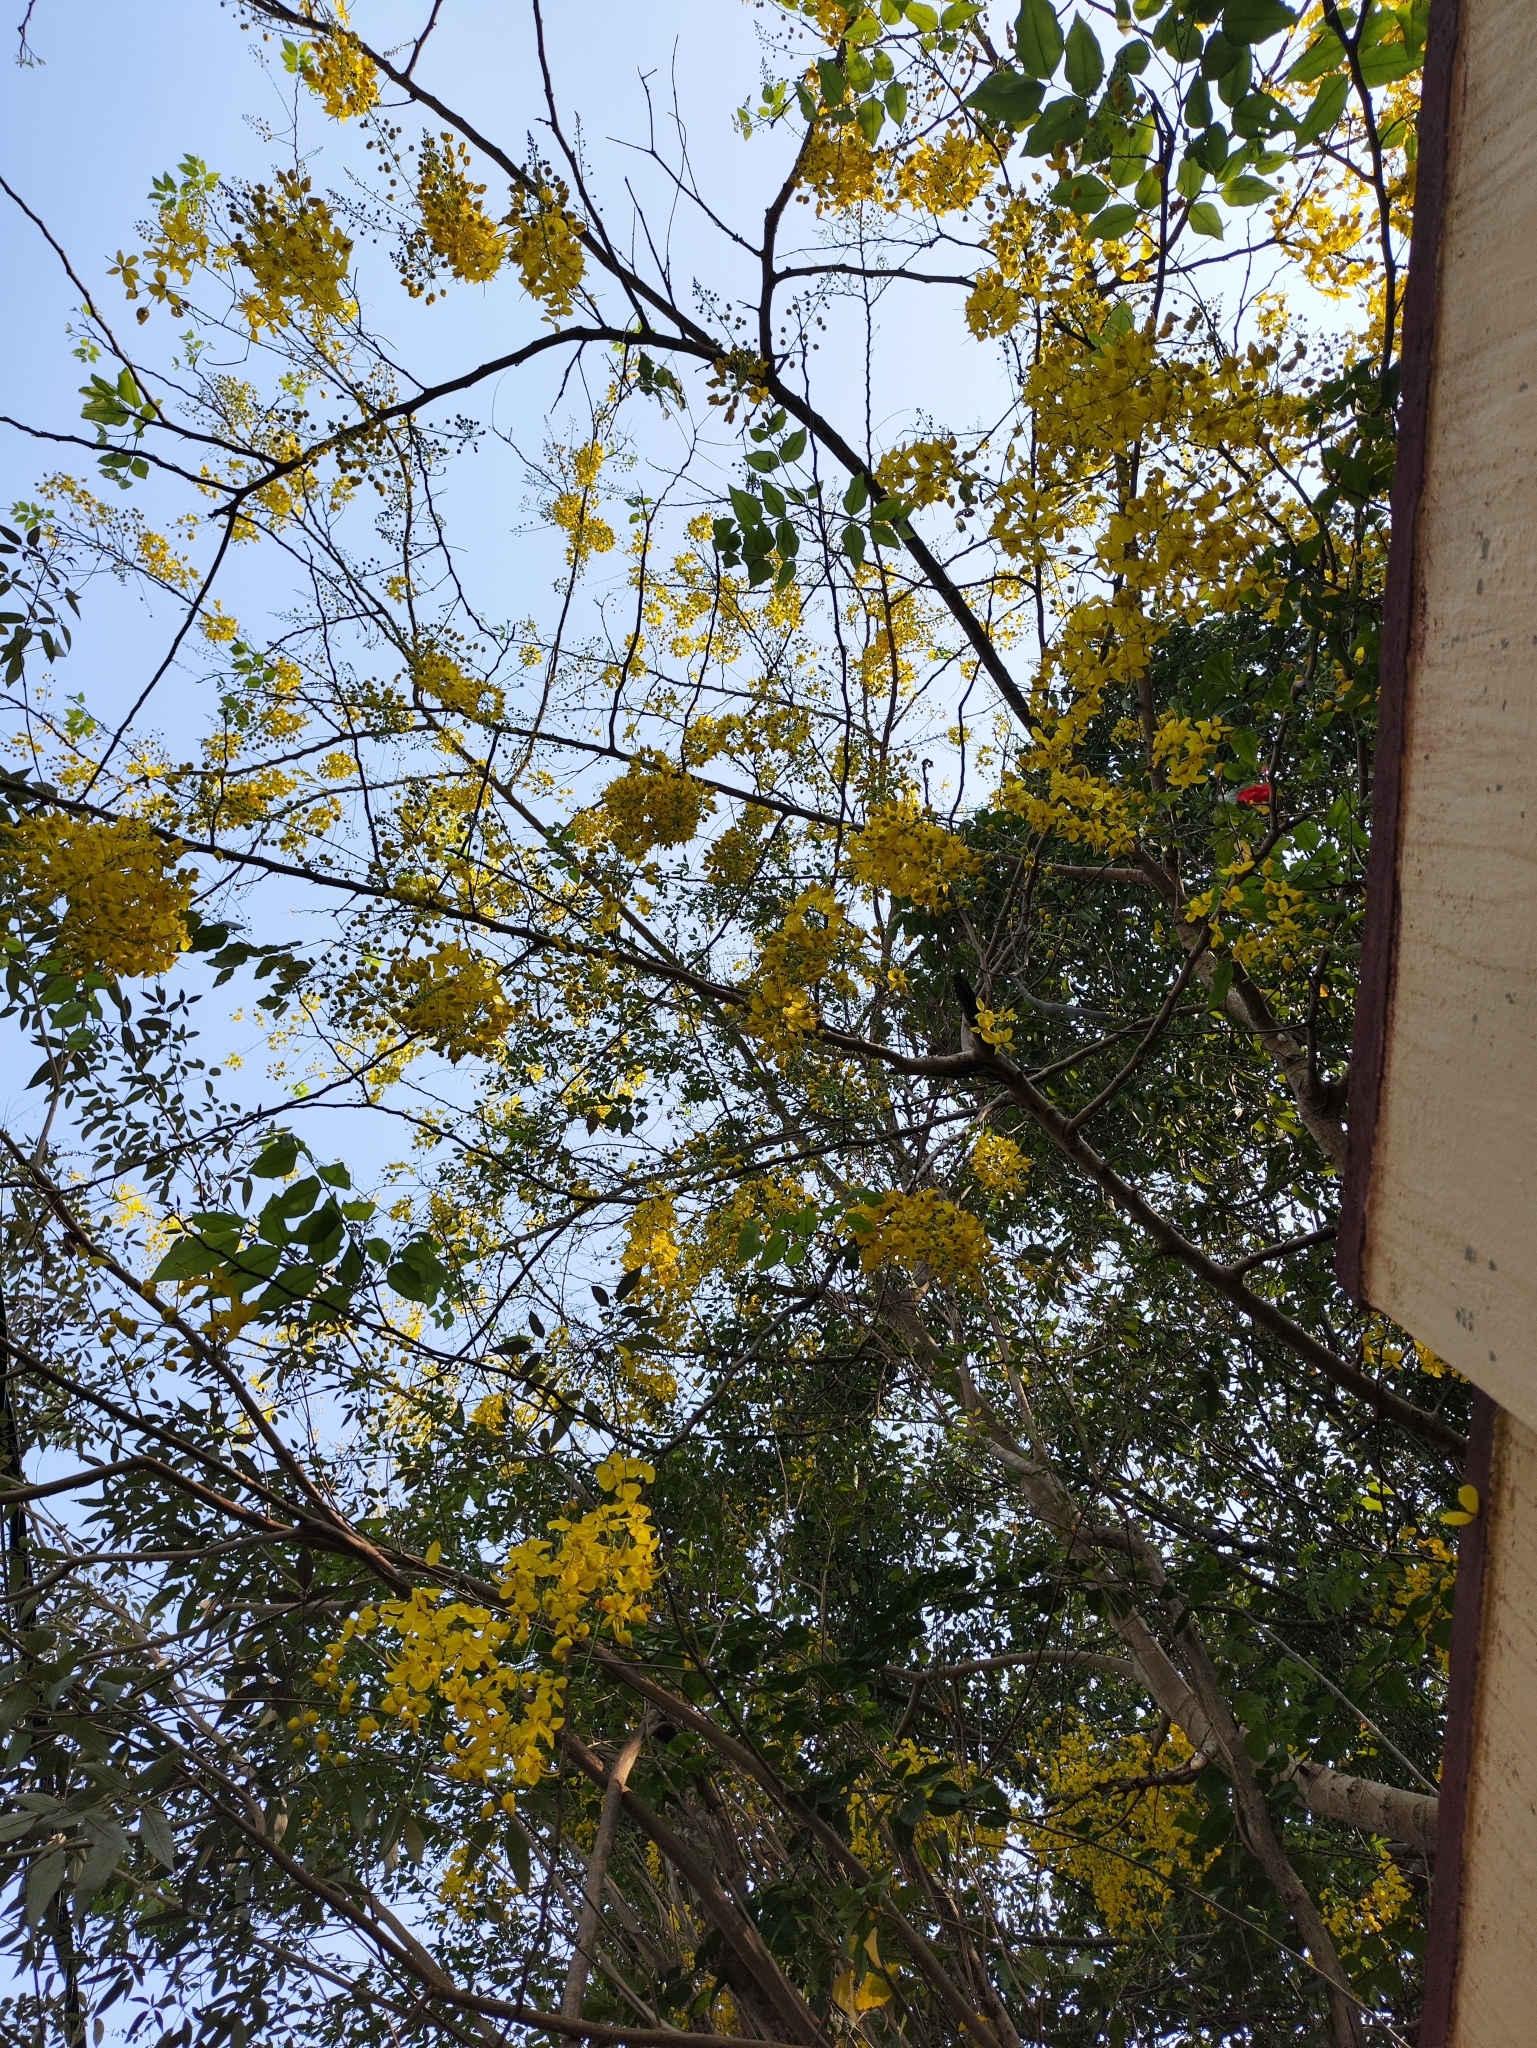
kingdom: Plantae
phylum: Tracheophyta
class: Magnoliopsida
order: Fabales
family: Fabaceae
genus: Cassia
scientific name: Cassia fistula
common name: Golden shower
